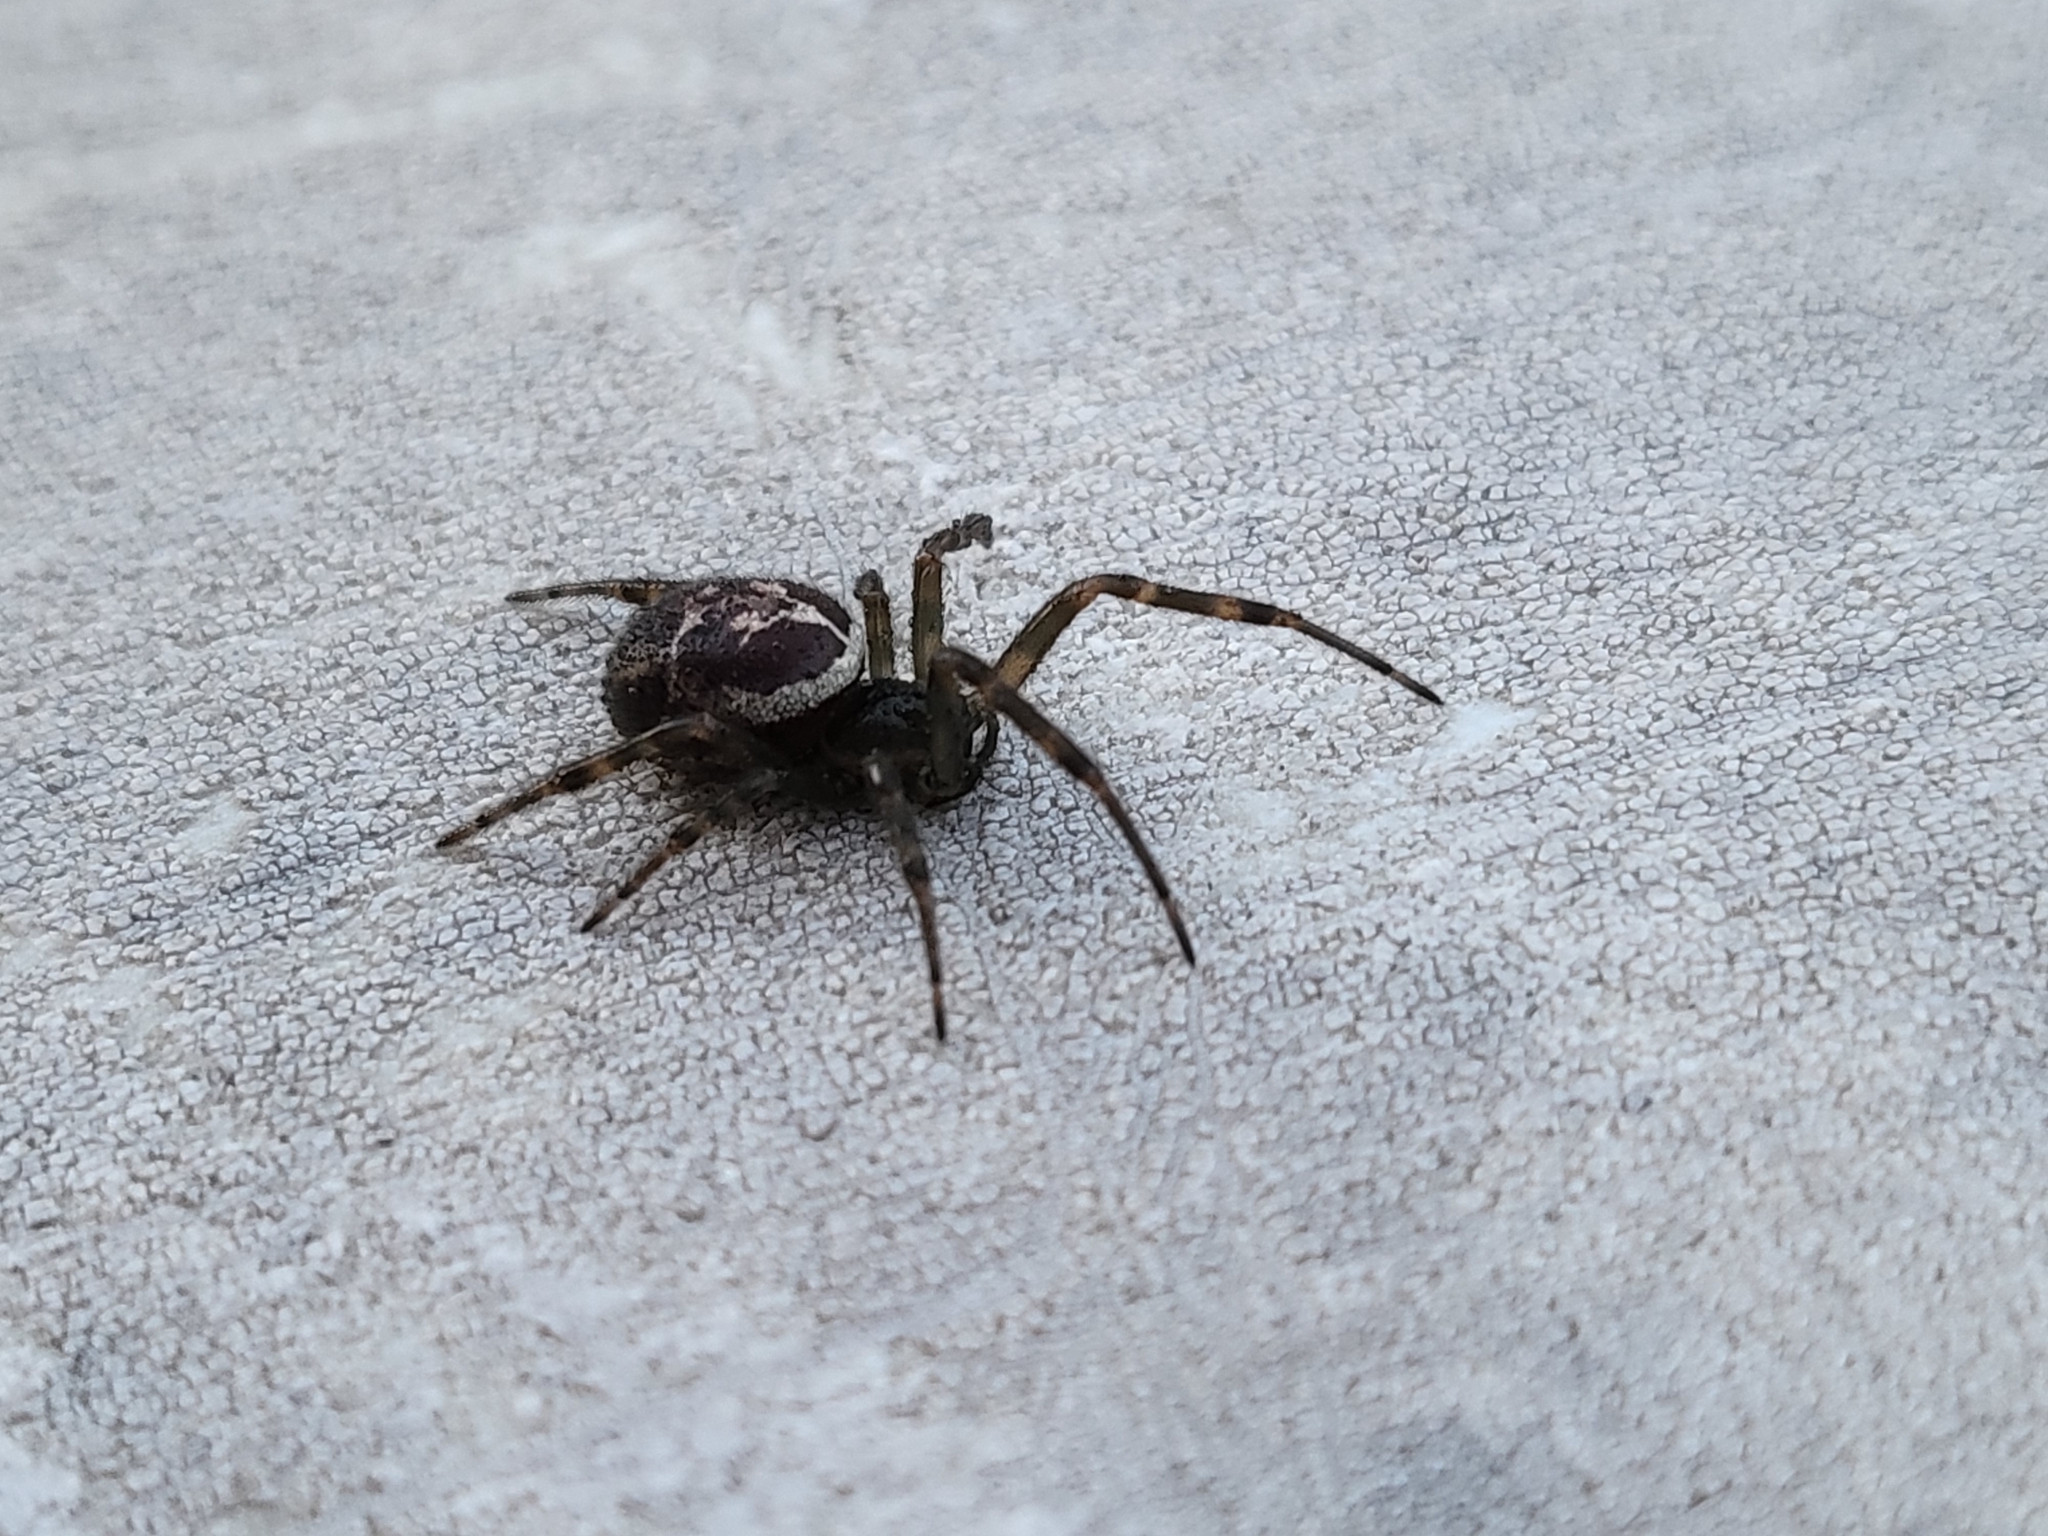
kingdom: Animalia
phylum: Arthropoda
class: Arachnida
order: Araneae
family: Theridiidae
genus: Steatoda
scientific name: Steatoda nobilis
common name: Cobweb weaver
